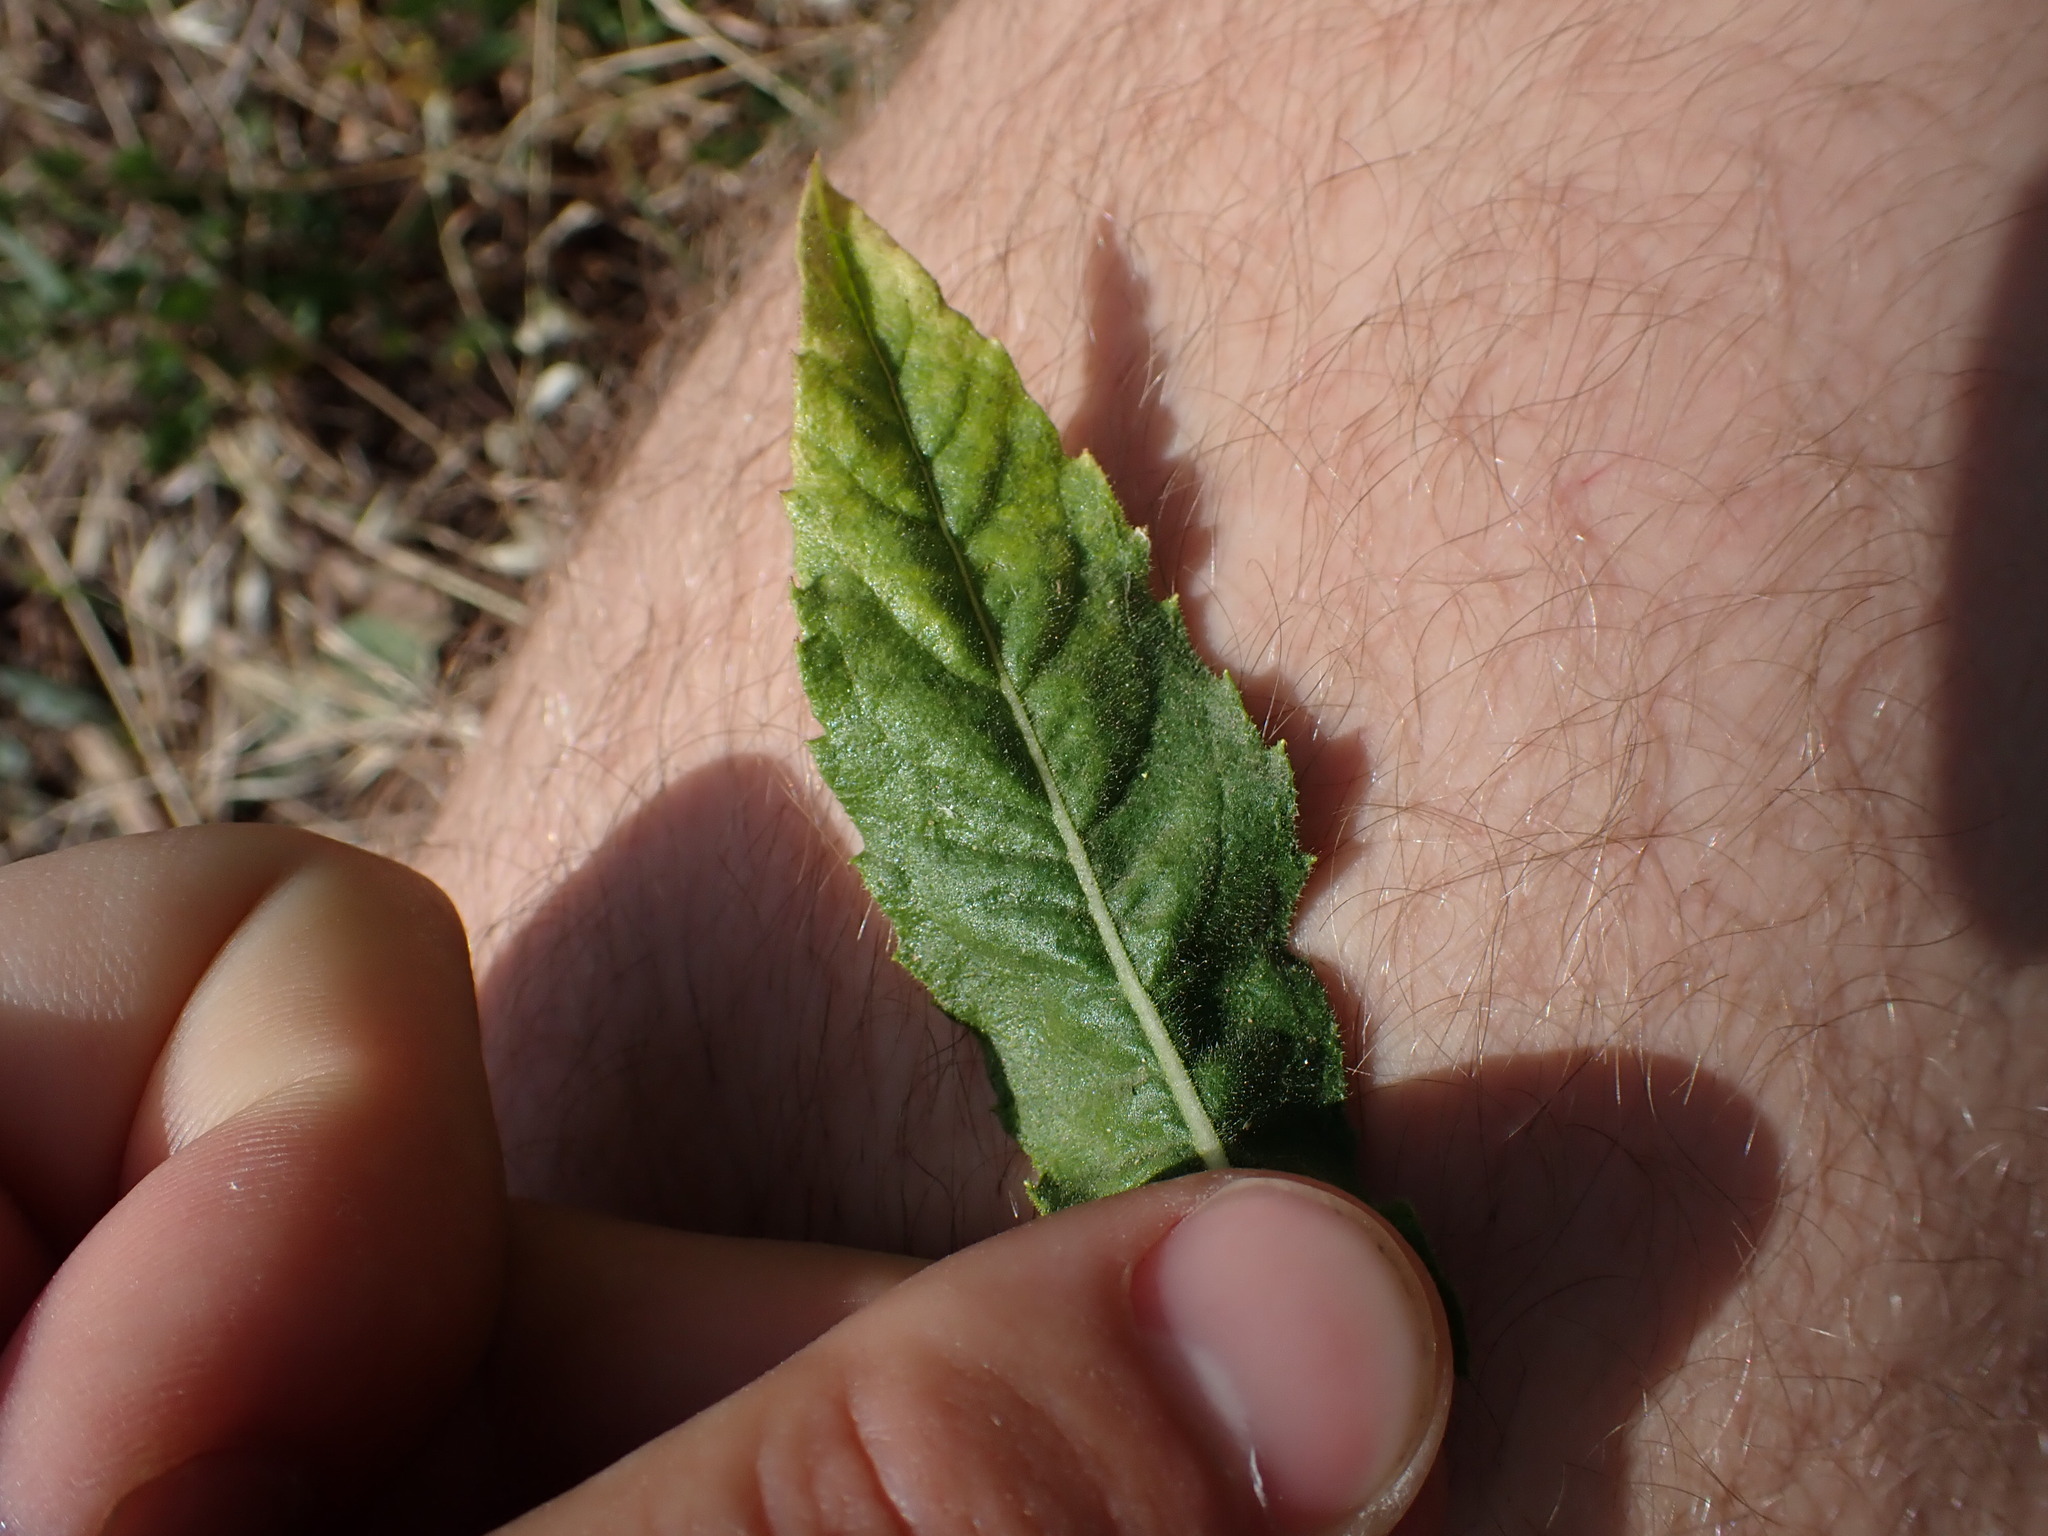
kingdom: Plantae
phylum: Tracheophyta
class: Magnoliopsida
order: Asterales
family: Asteraceae
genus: Dittrichia
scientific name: Dittrichia viscosa
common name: Woody fleabane
